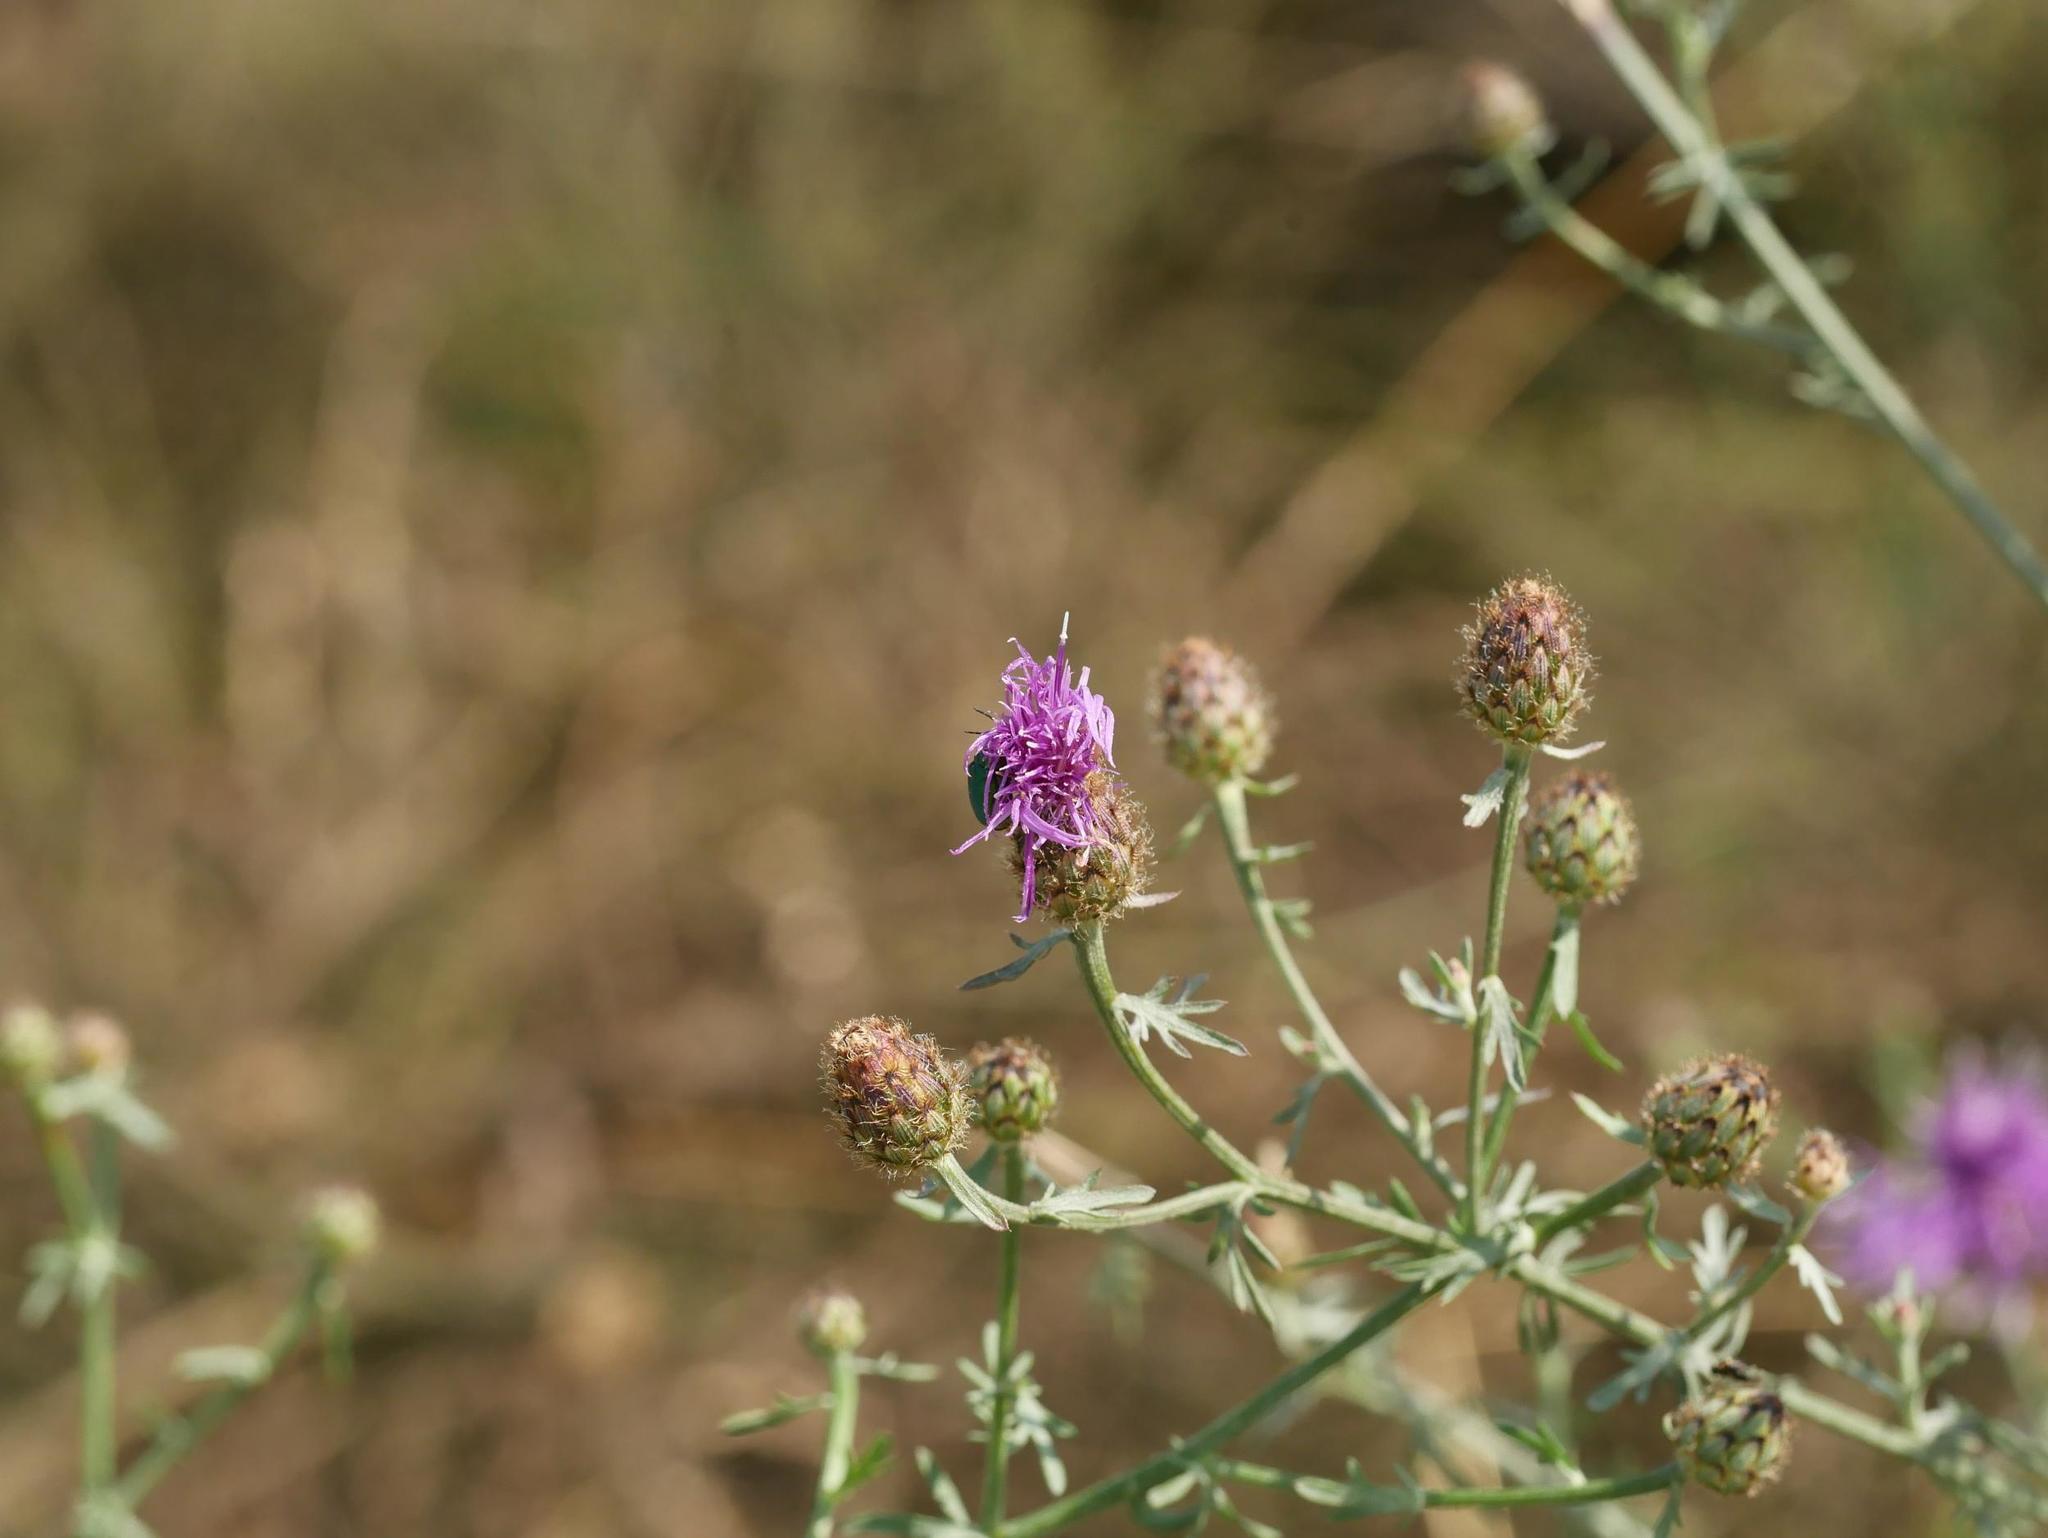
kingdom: Plantae
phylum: Tracheophyta
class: Magnoliopsida
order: Asterales
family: Asteraceae
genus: Centaurea
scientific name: Centaurea stoebe
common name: Spotted knapweed
